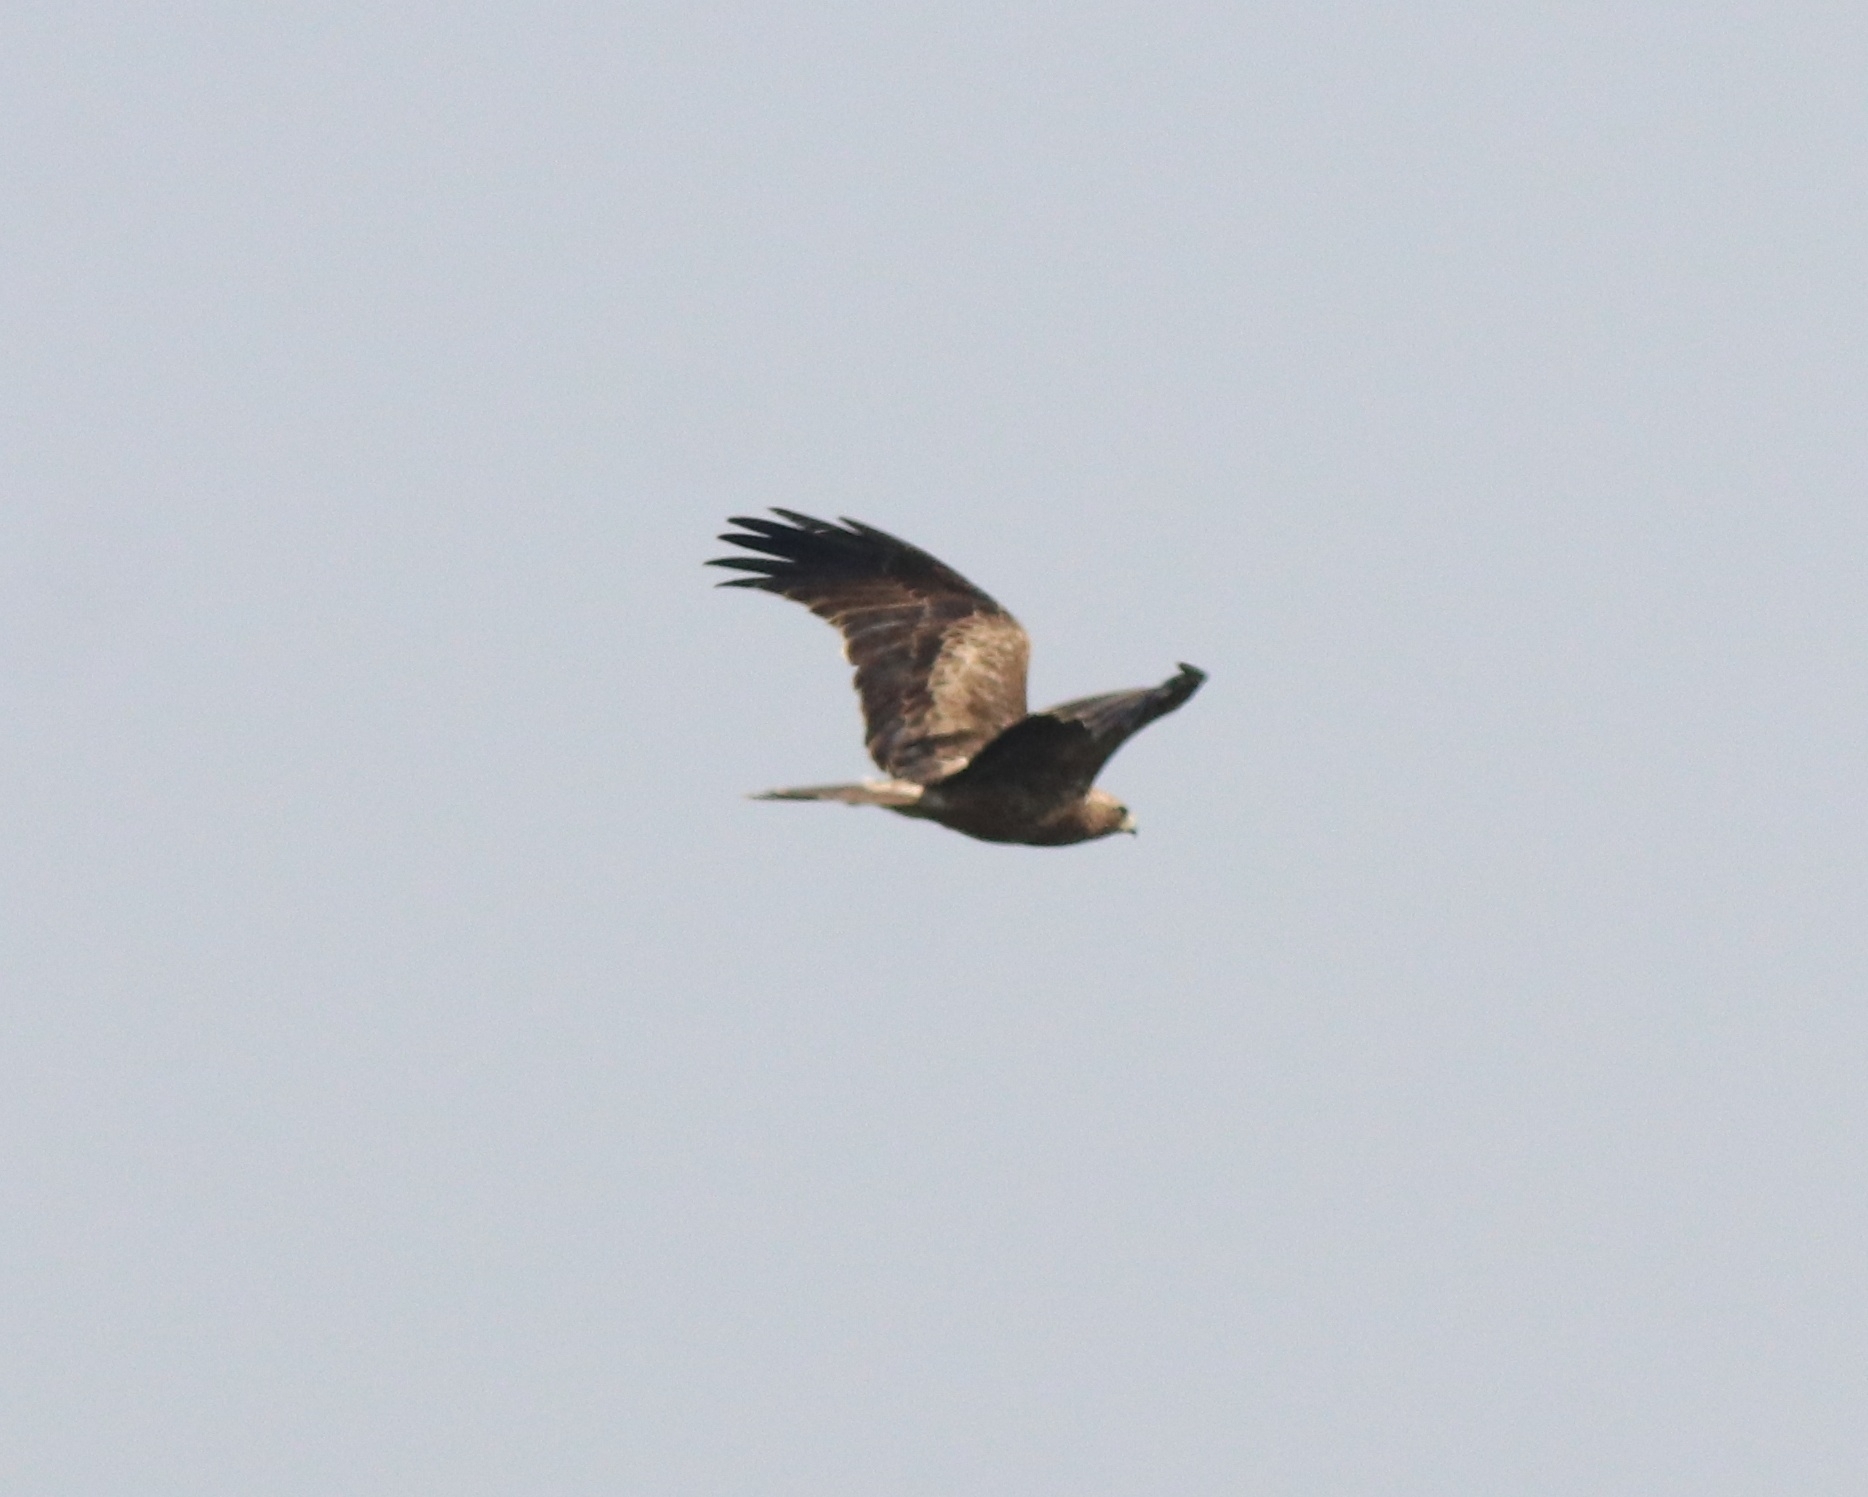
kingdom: Animalia
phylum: Chordata
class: Aves
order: Accipitriformes
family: Accipitridae
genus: Hieraaetus
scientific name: Hieraaetus pennatus
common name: Booted eagle
